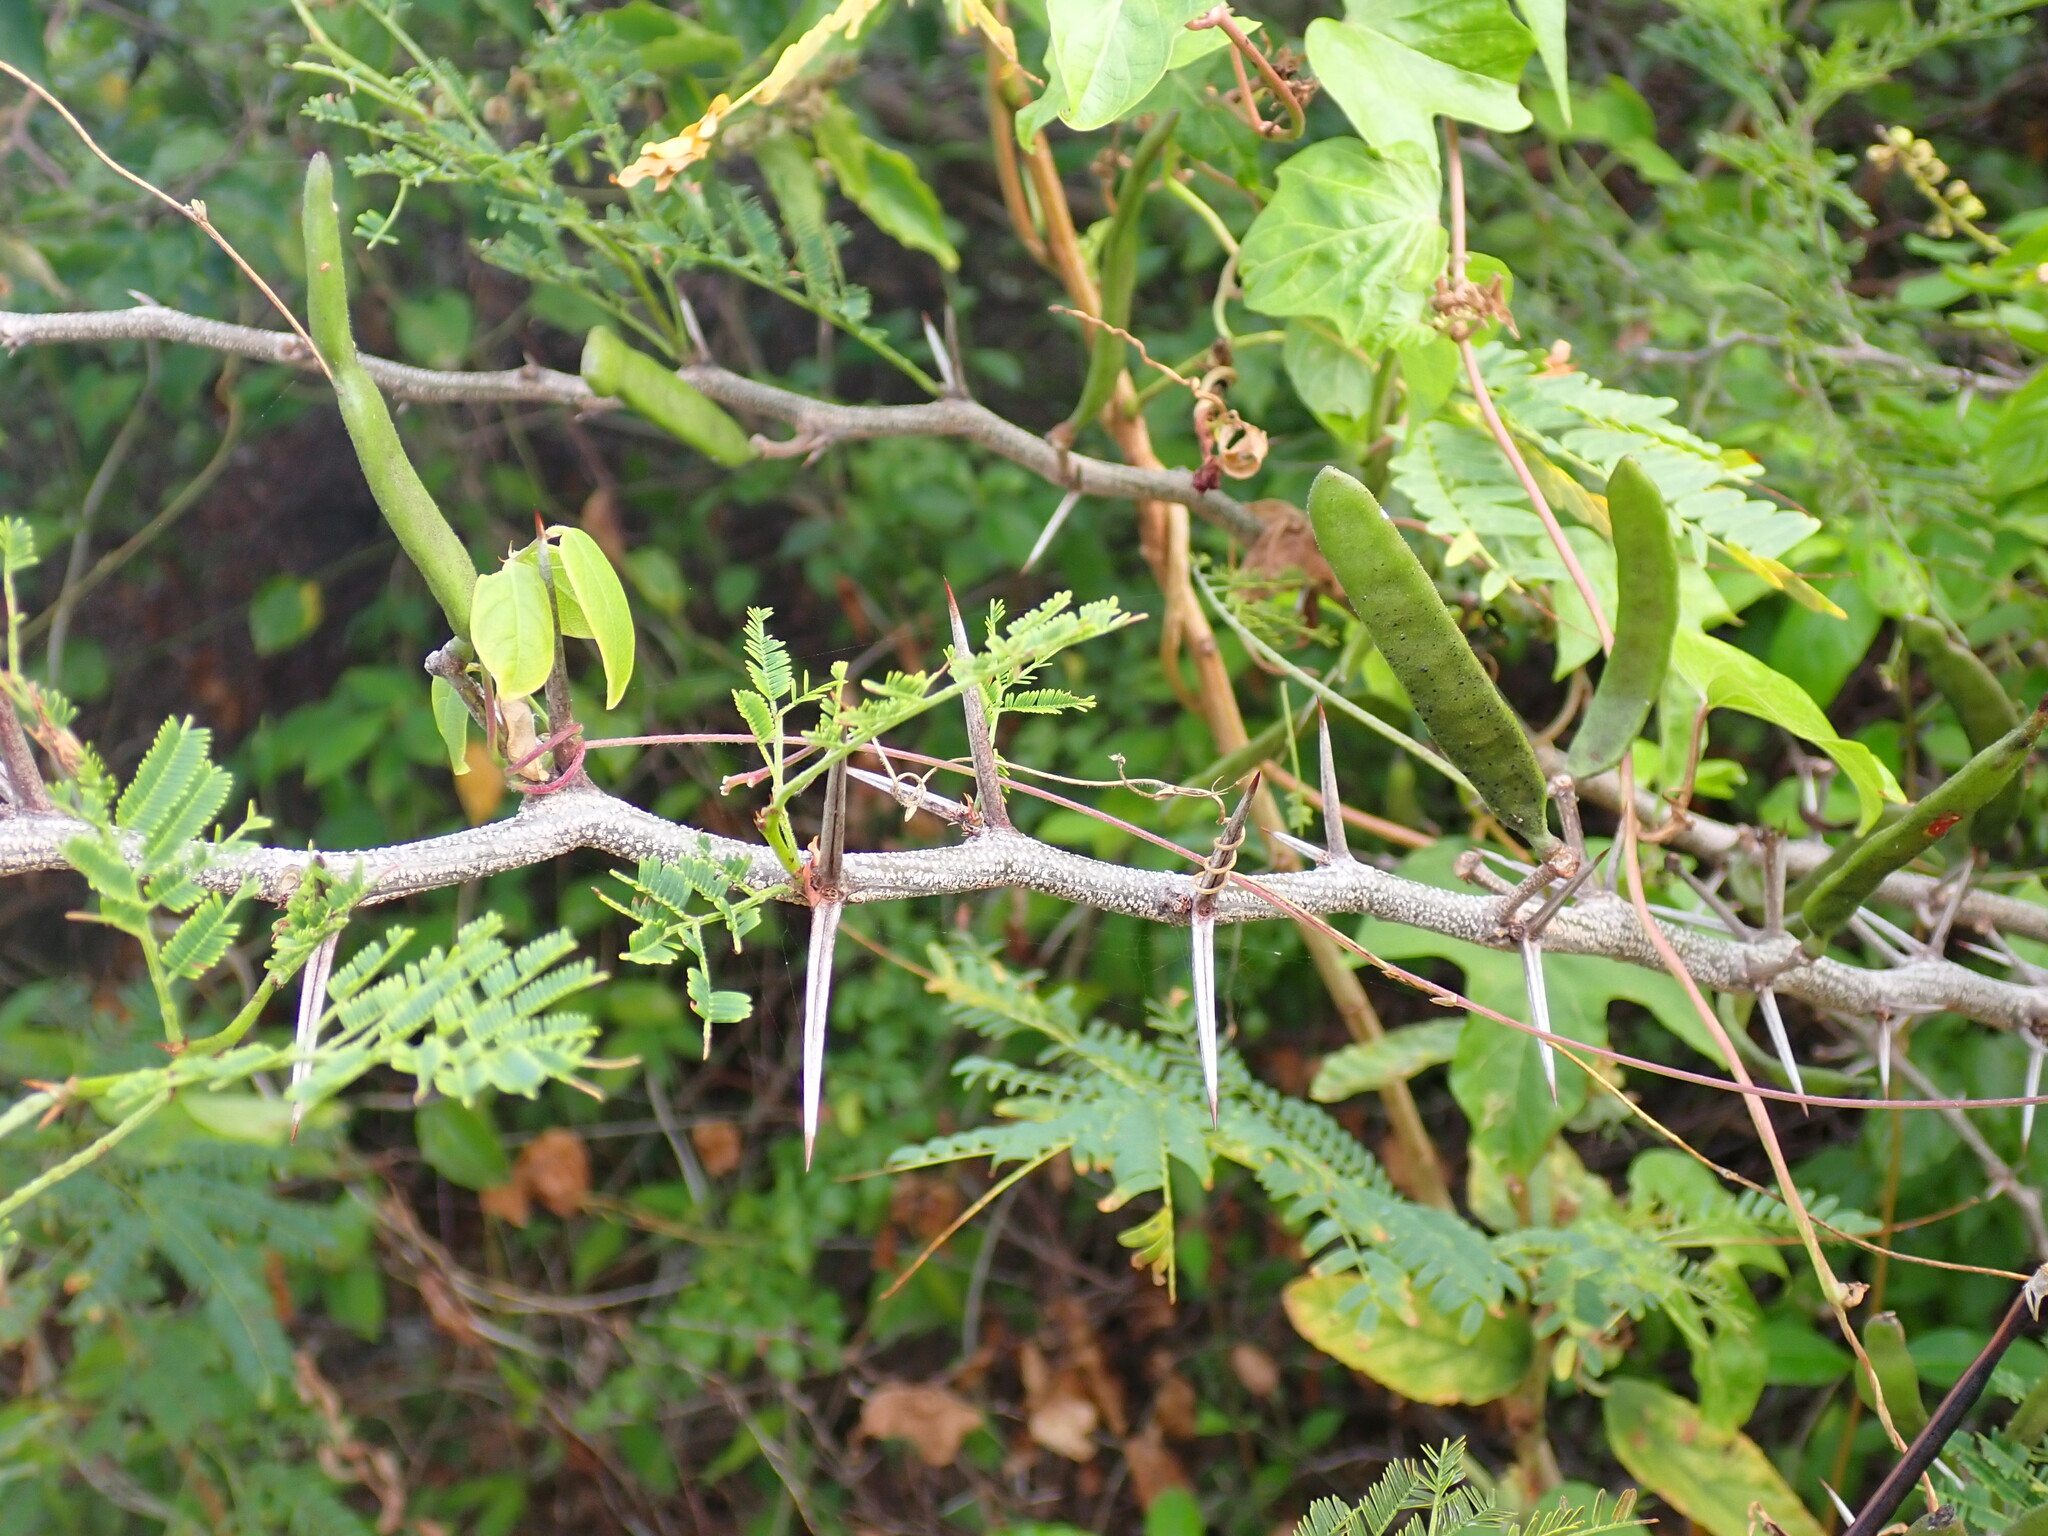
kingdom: Plantae
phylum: Tracheophyta
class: Magnoliopsida
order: Fabales
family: Fabaceae
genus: Vachellia
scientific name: Vachellia macracantha
